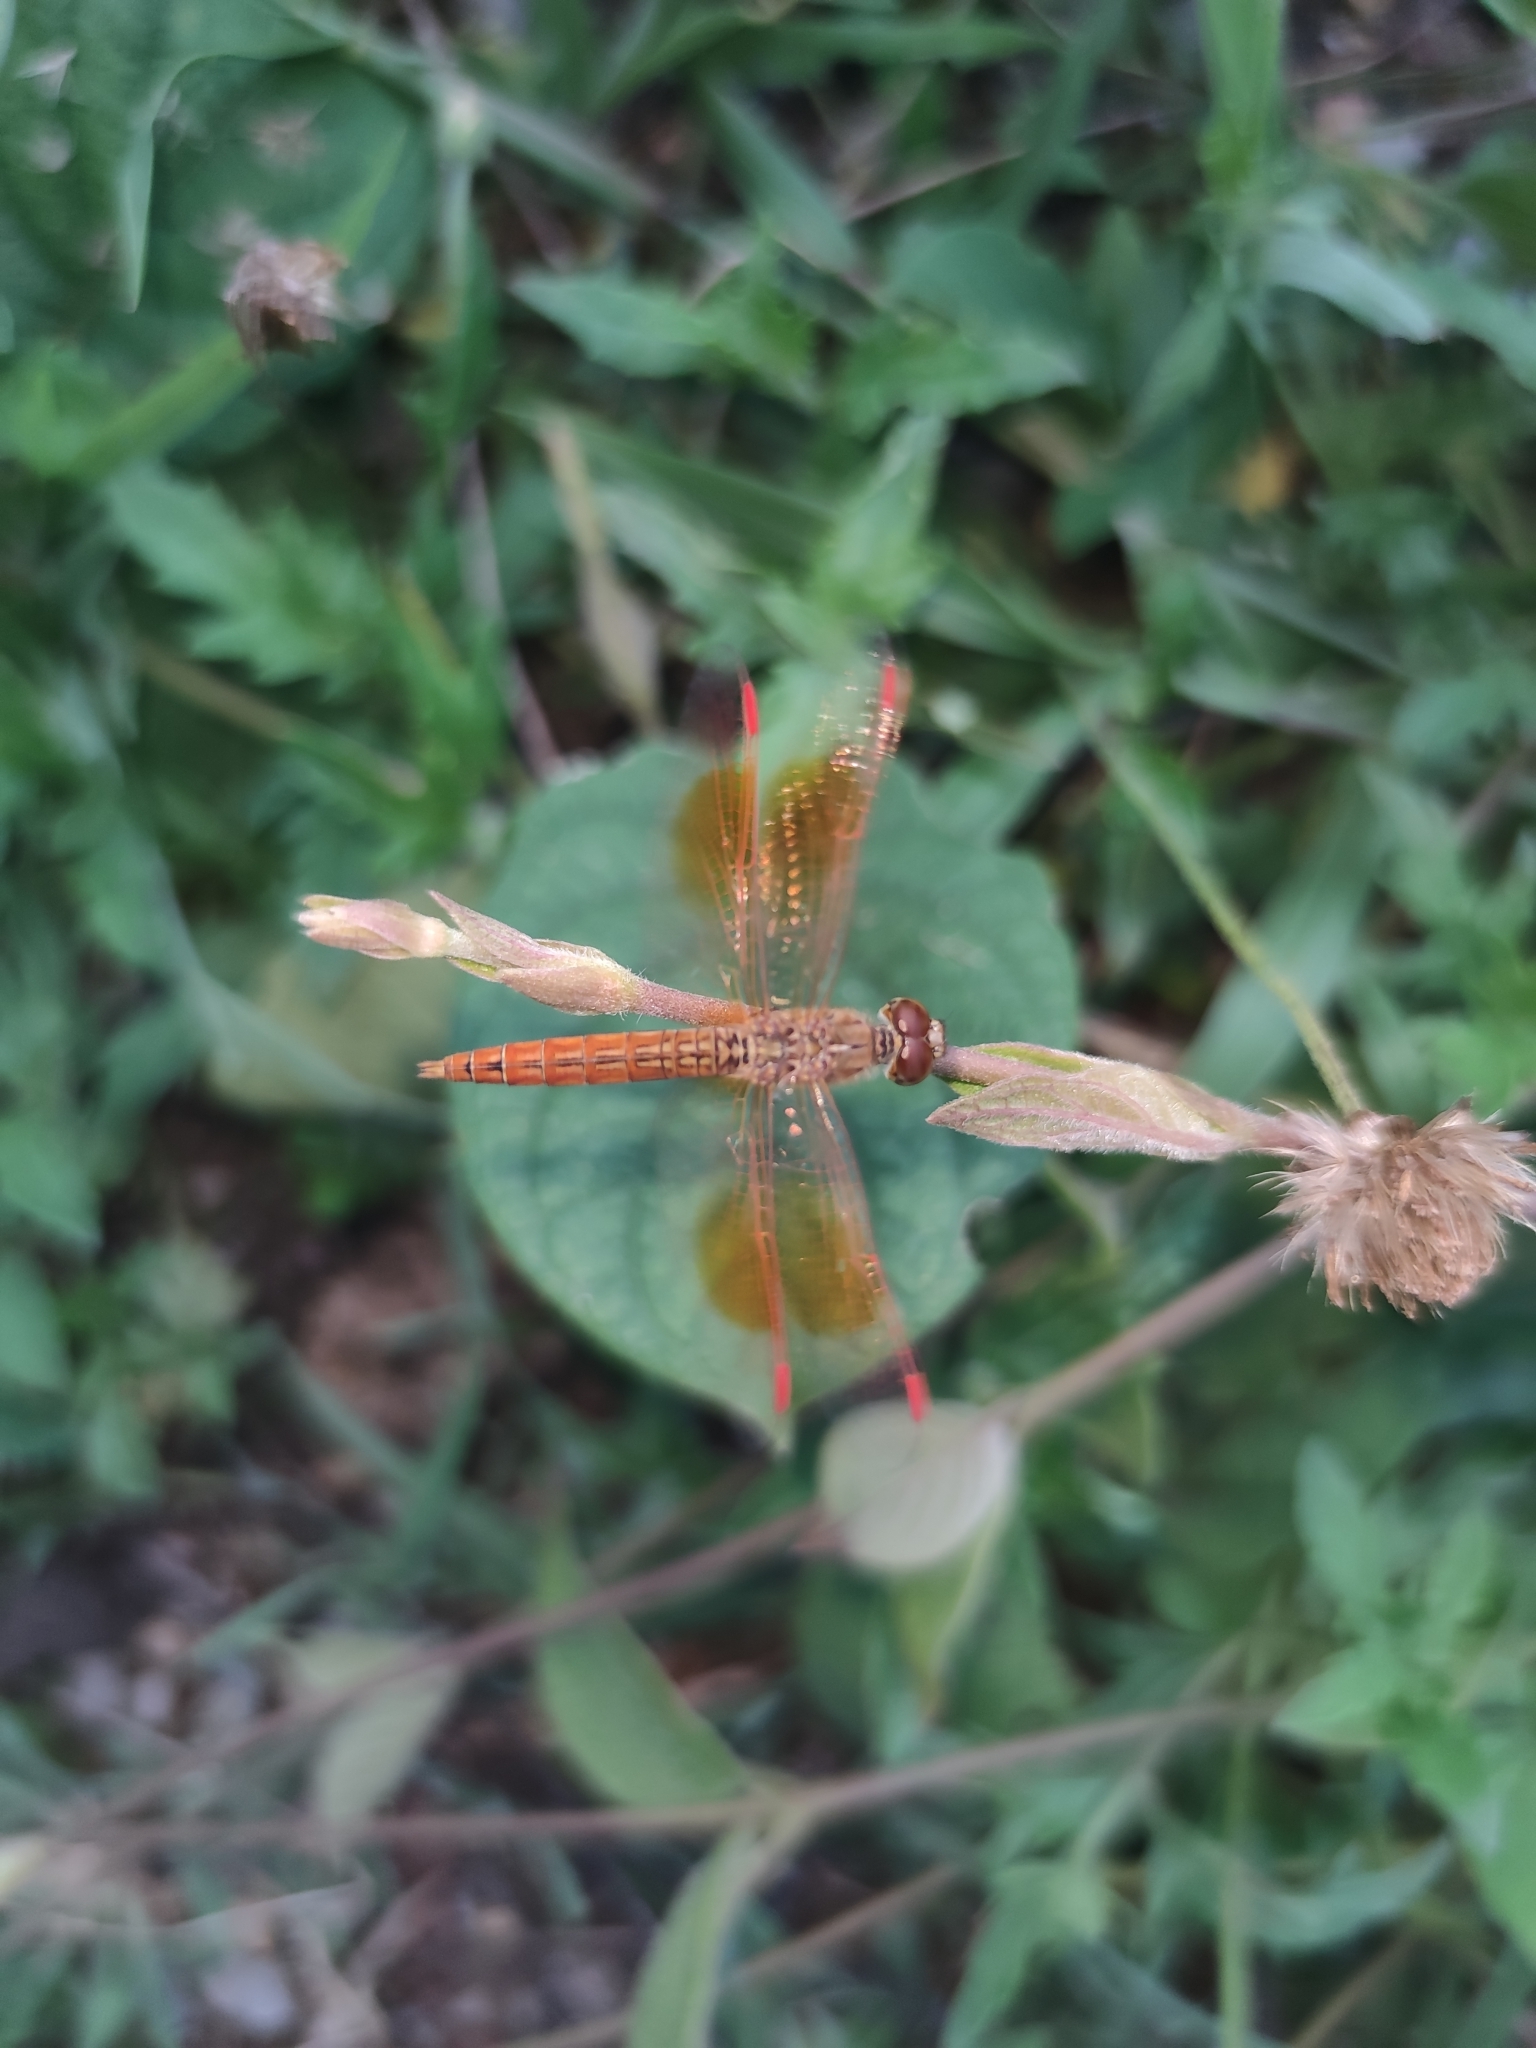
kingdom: Animalia
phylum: Arthropoda
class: Insecta
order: Odonata
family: Libellulidae
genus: Brachythemis
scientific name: Brachythemis contaminata
